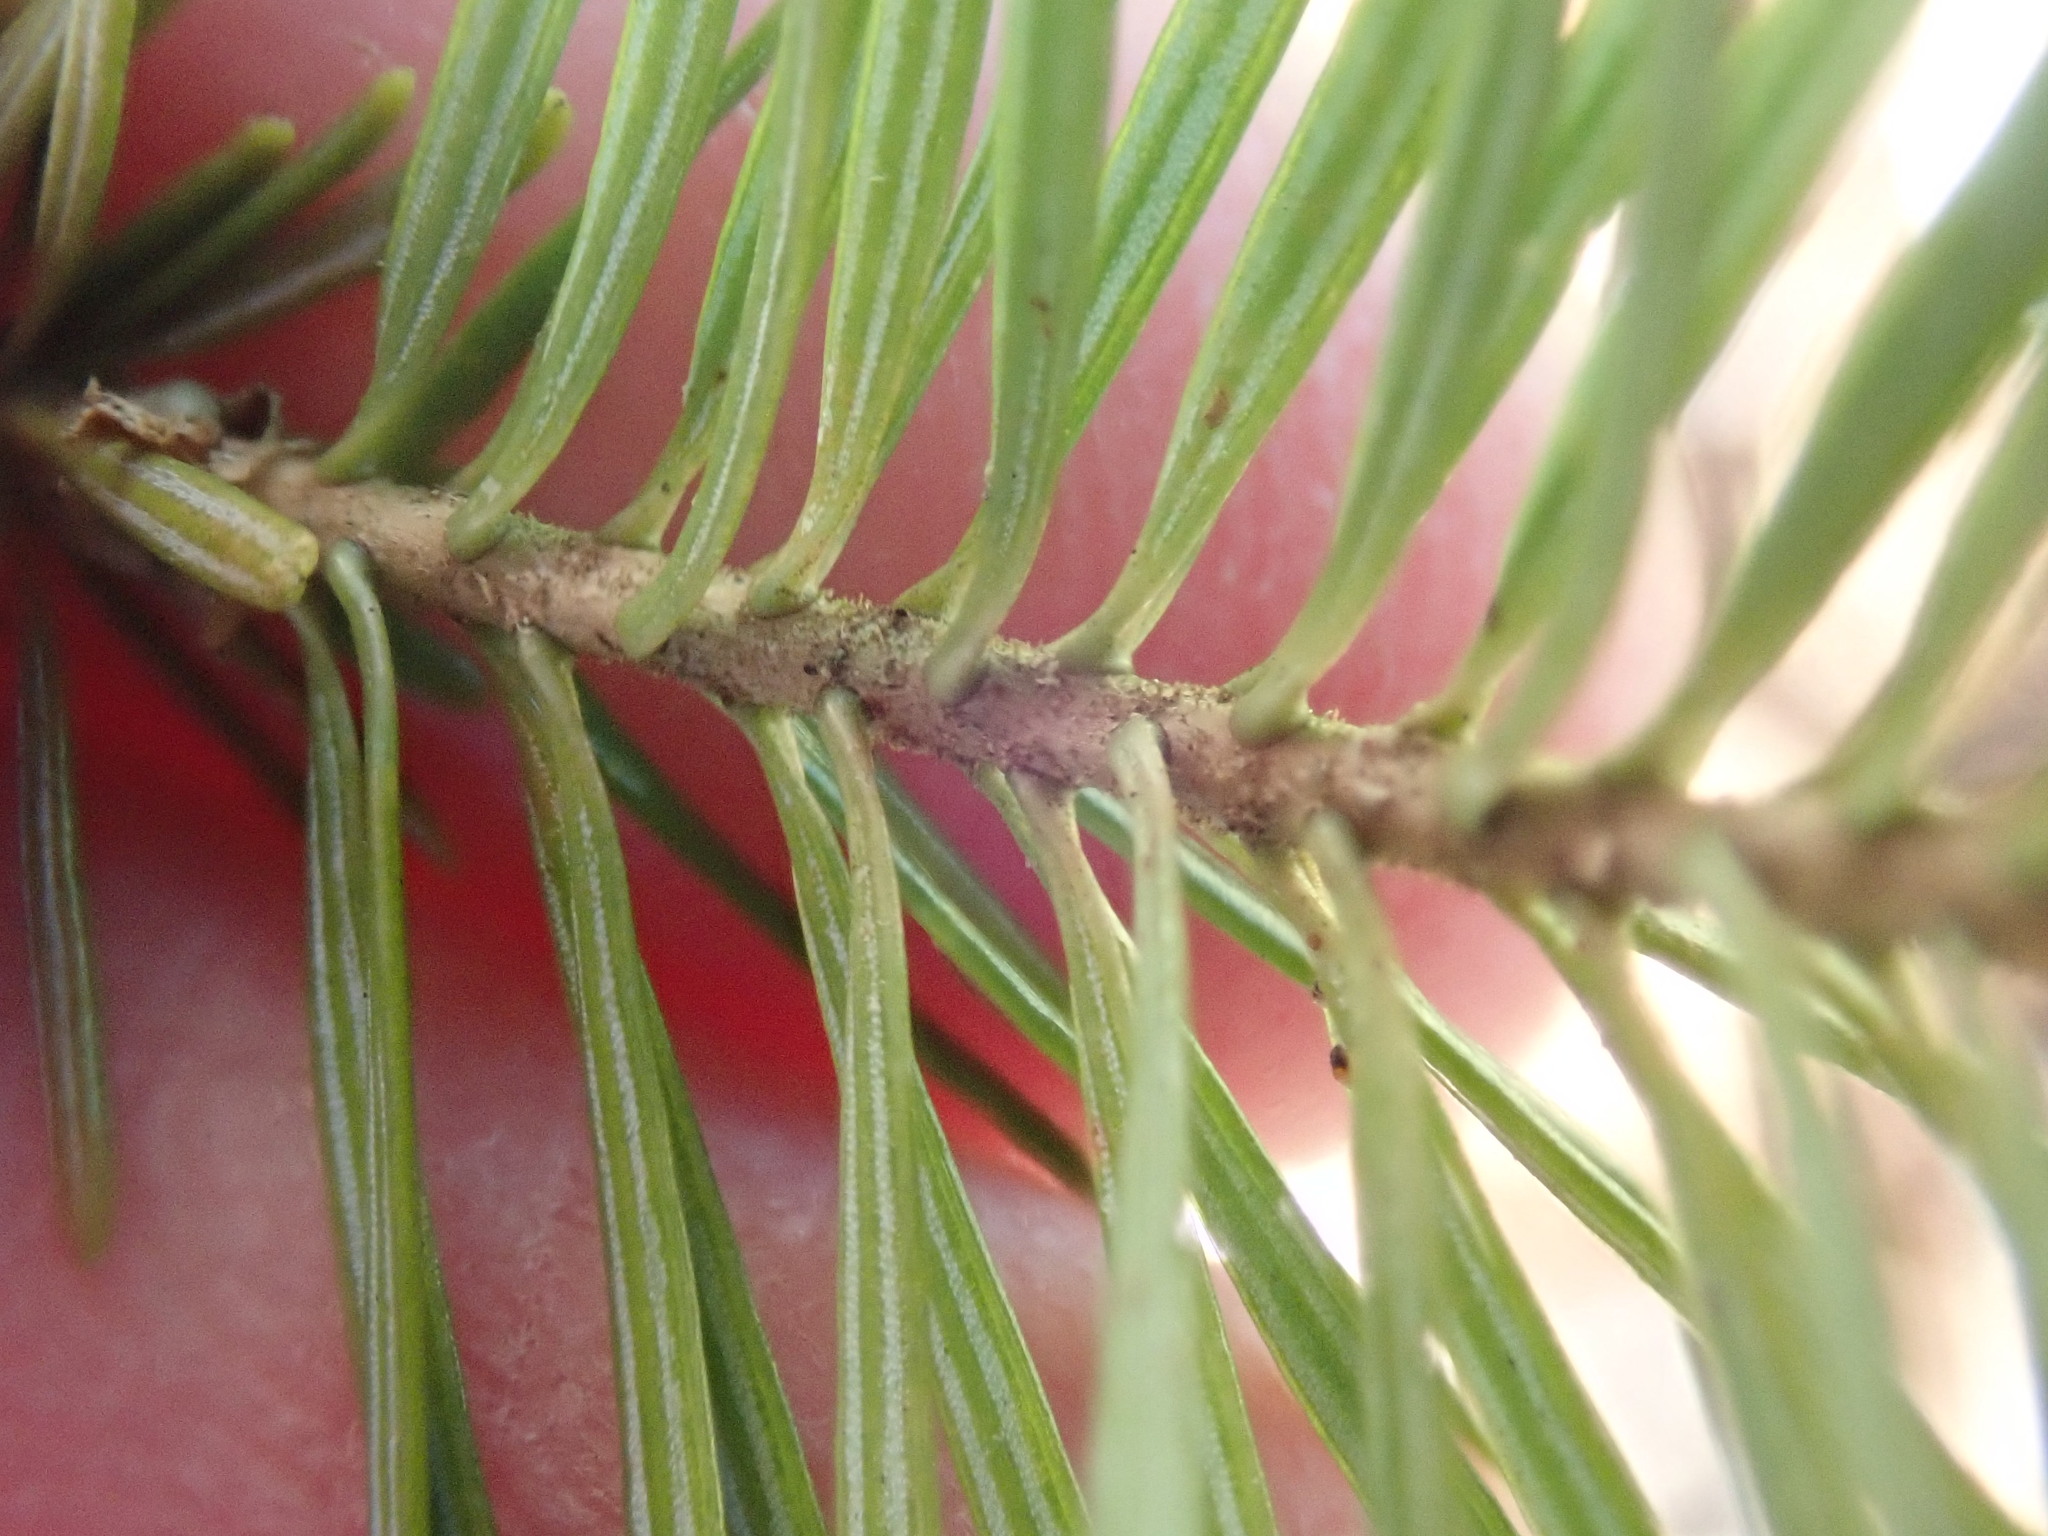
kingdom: Plantae
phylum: Tracheophyta
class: Pinopsida
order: Pinales
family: Pinaceae
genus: Abies
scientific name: Abies balsamea
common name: Balsam fir
